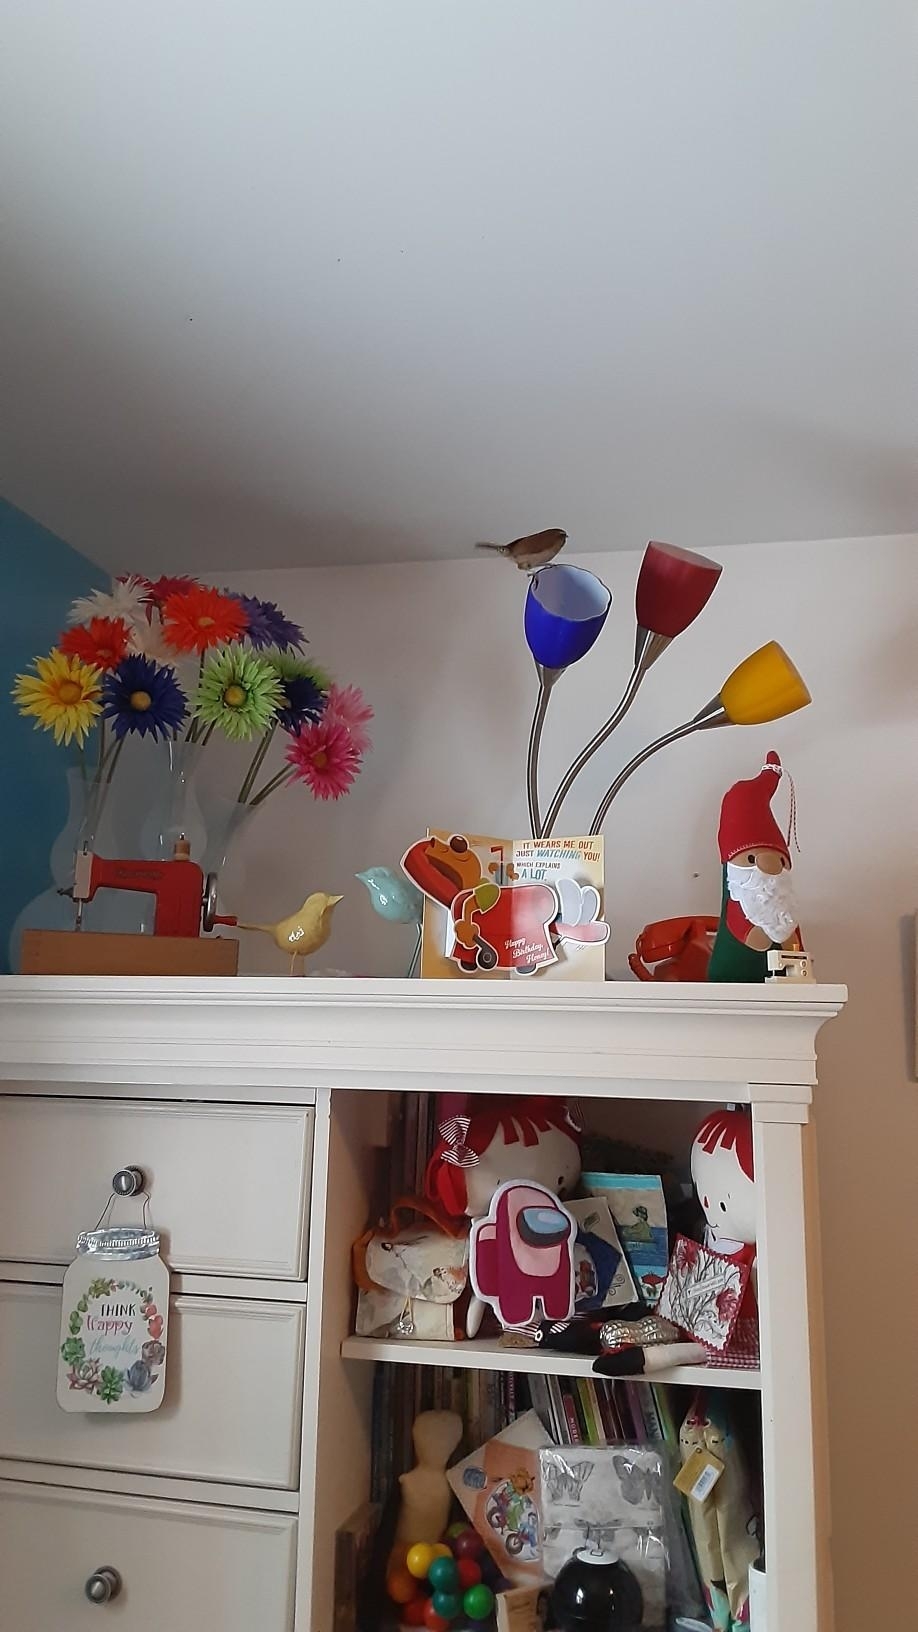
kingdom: Animalia
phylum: Chordata
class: Aves
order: Passeriformes
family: Troglodytidae
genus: Thryothorus
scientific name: Thryothorus ludovicianus
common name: Carolina wren
